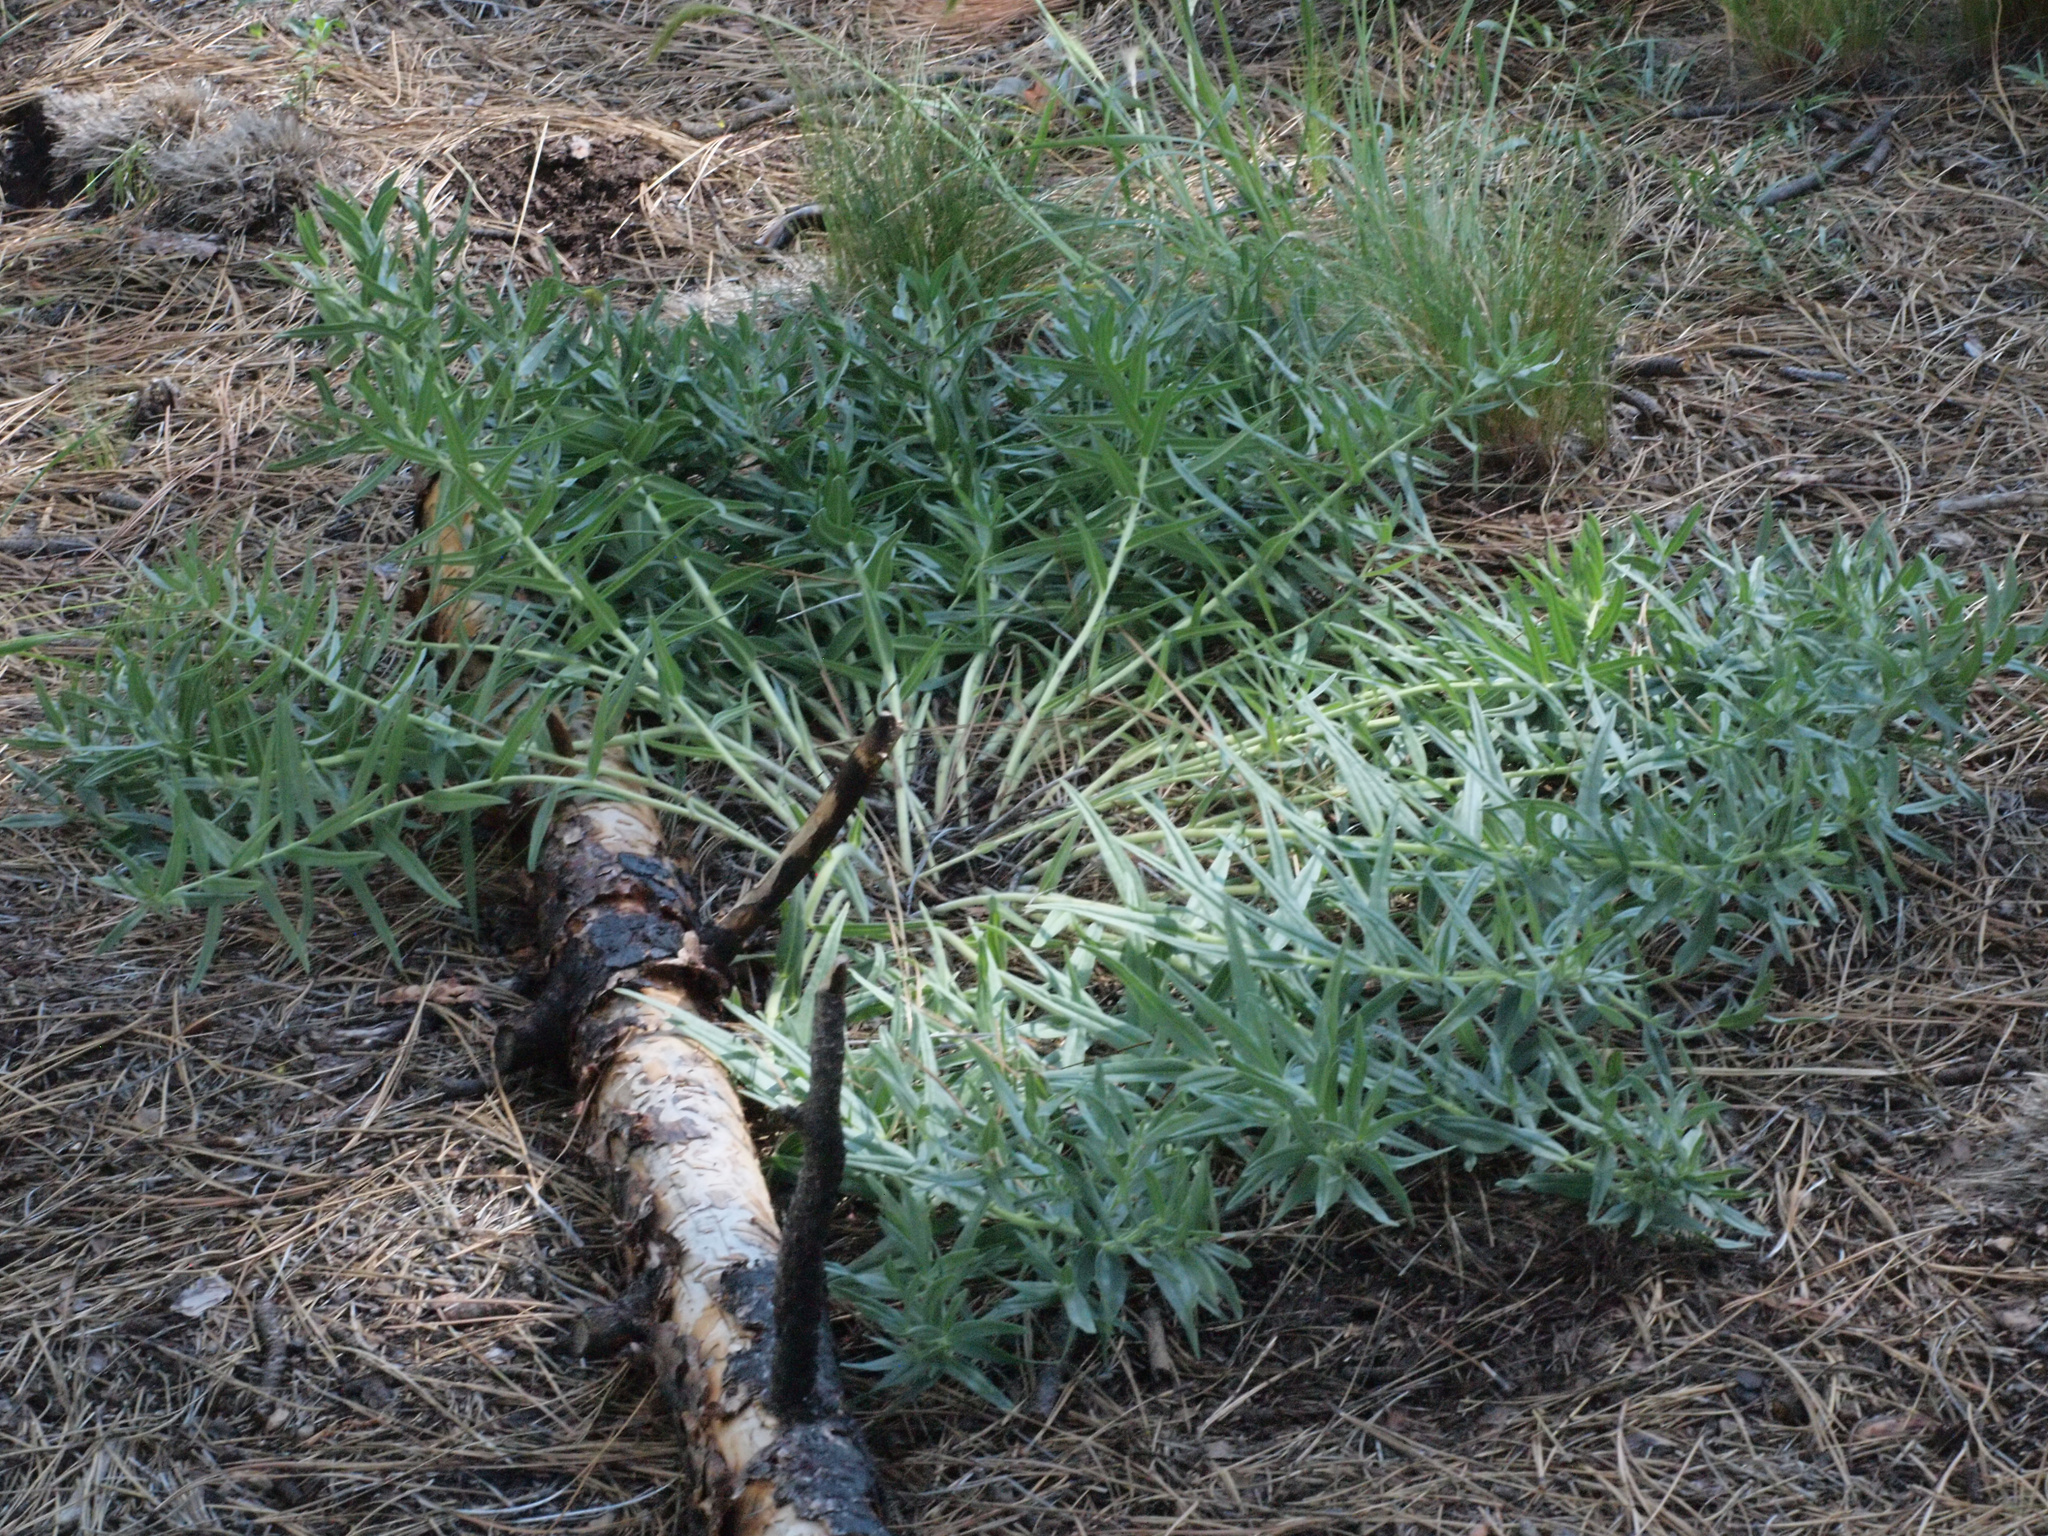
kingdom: Plantae
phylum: Tracheophyta
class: Magnoliopsida
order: Boraginales
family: Boraginaceae
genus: Lithospermum
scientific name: Lithospermum ruderale
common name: Western gromwell
